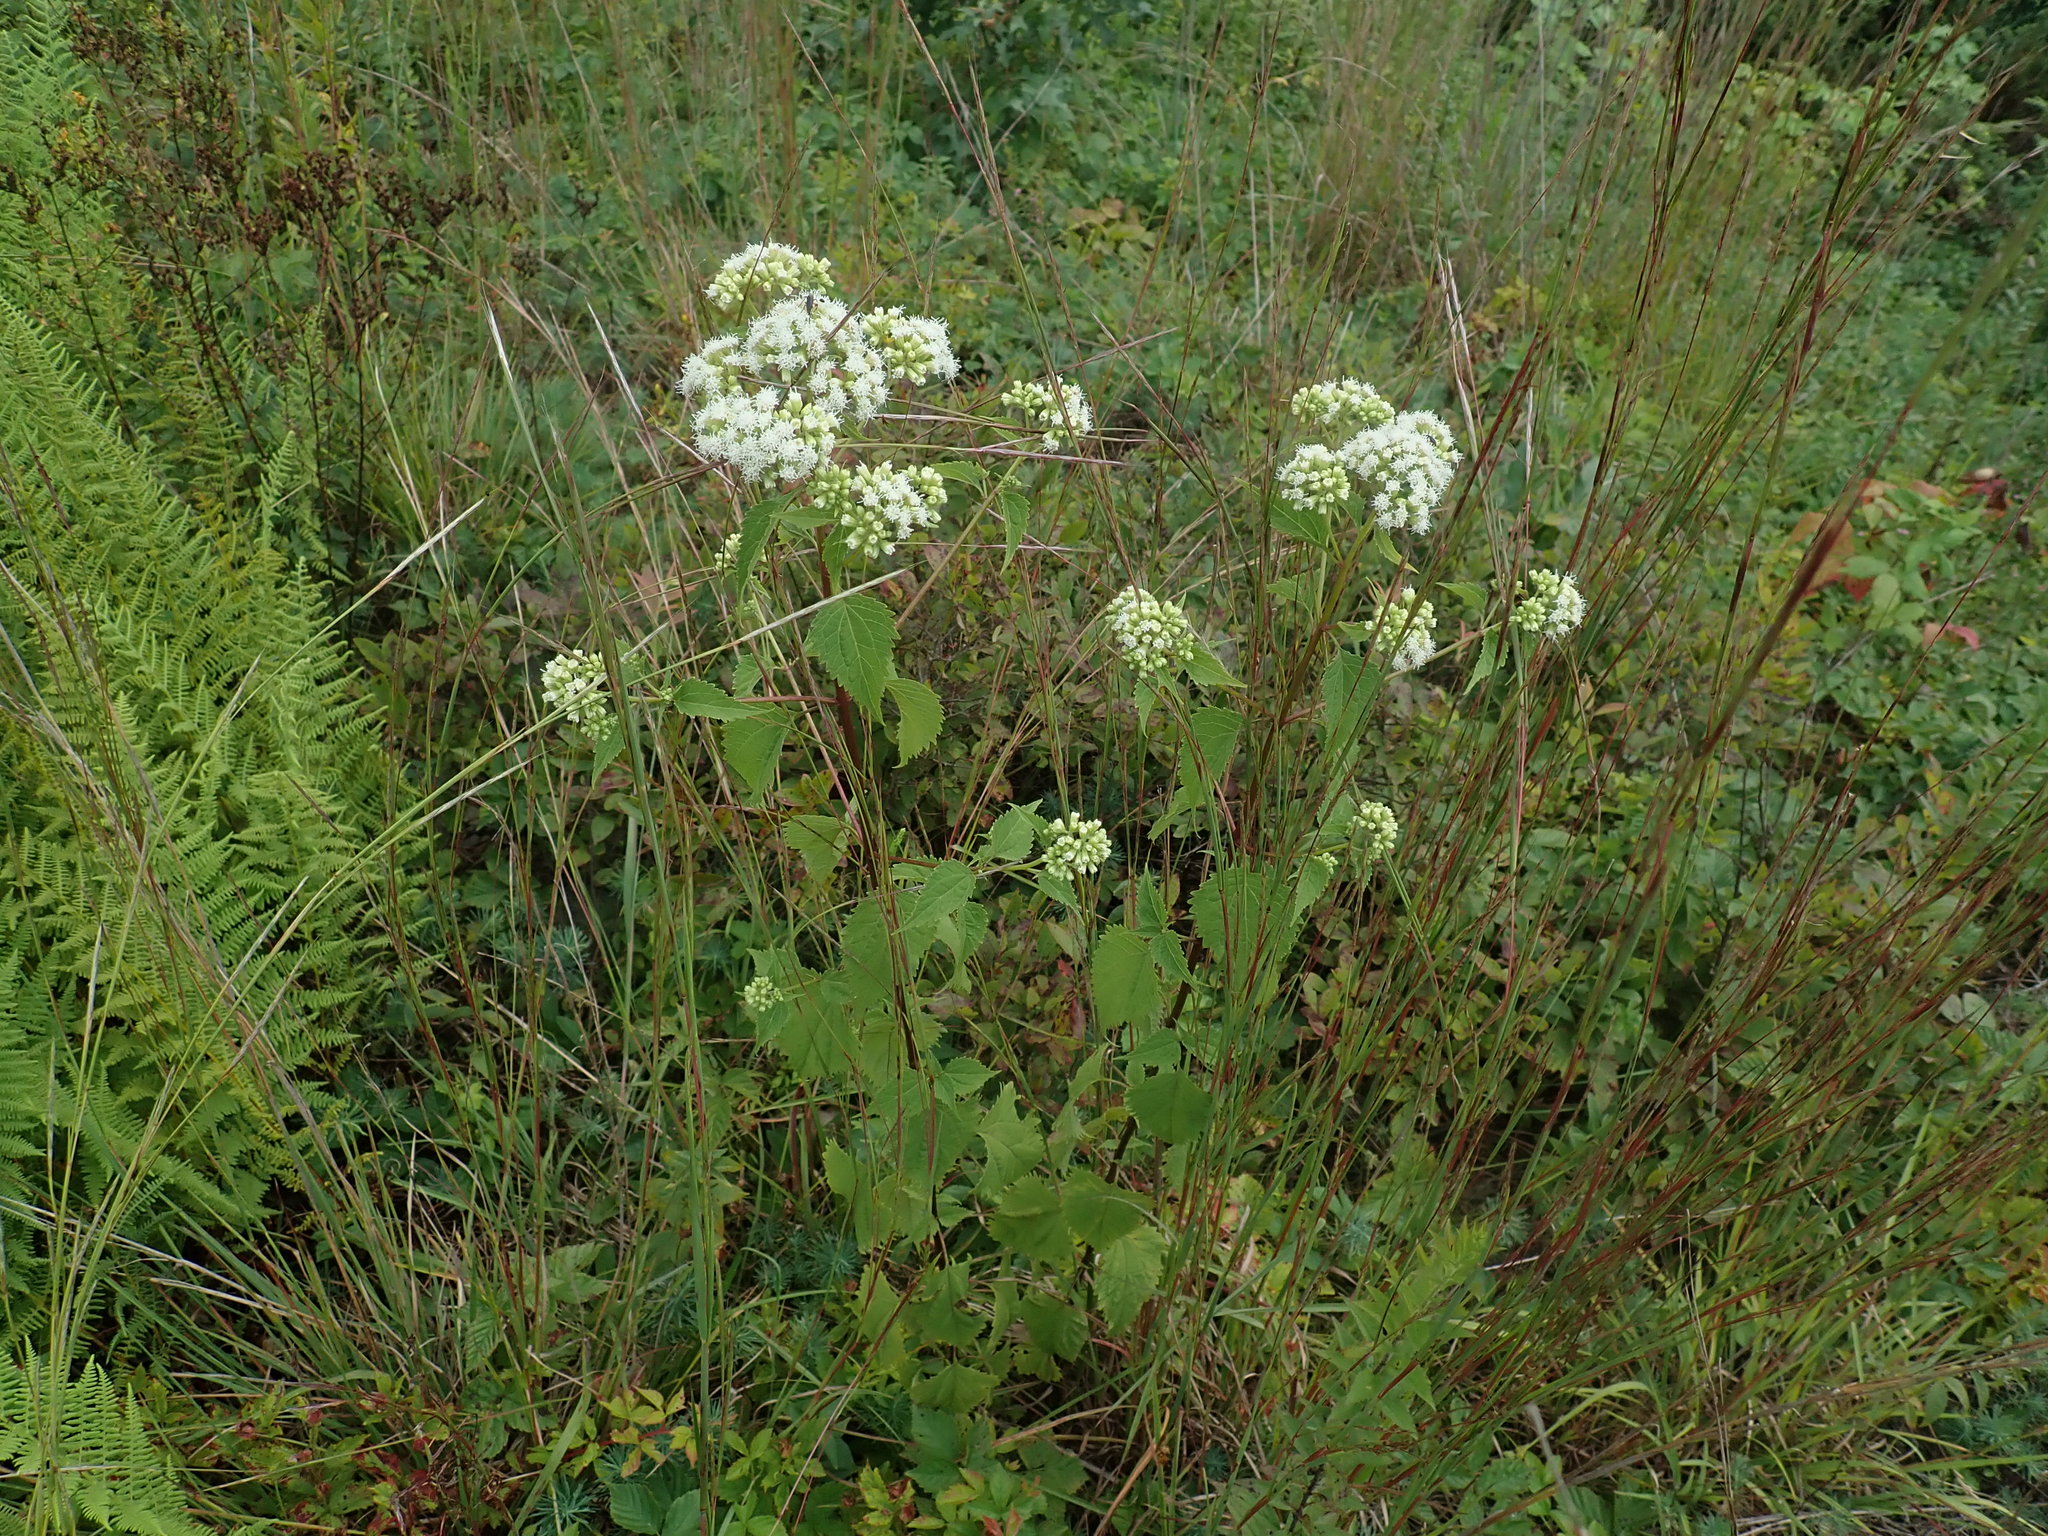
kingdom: Plantae
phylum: Tracheophyta
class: Magnoliopsida
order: Asterales
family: Asteraceae
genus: Ageratina
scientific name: Ageratina altissima
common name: White snakeroot
